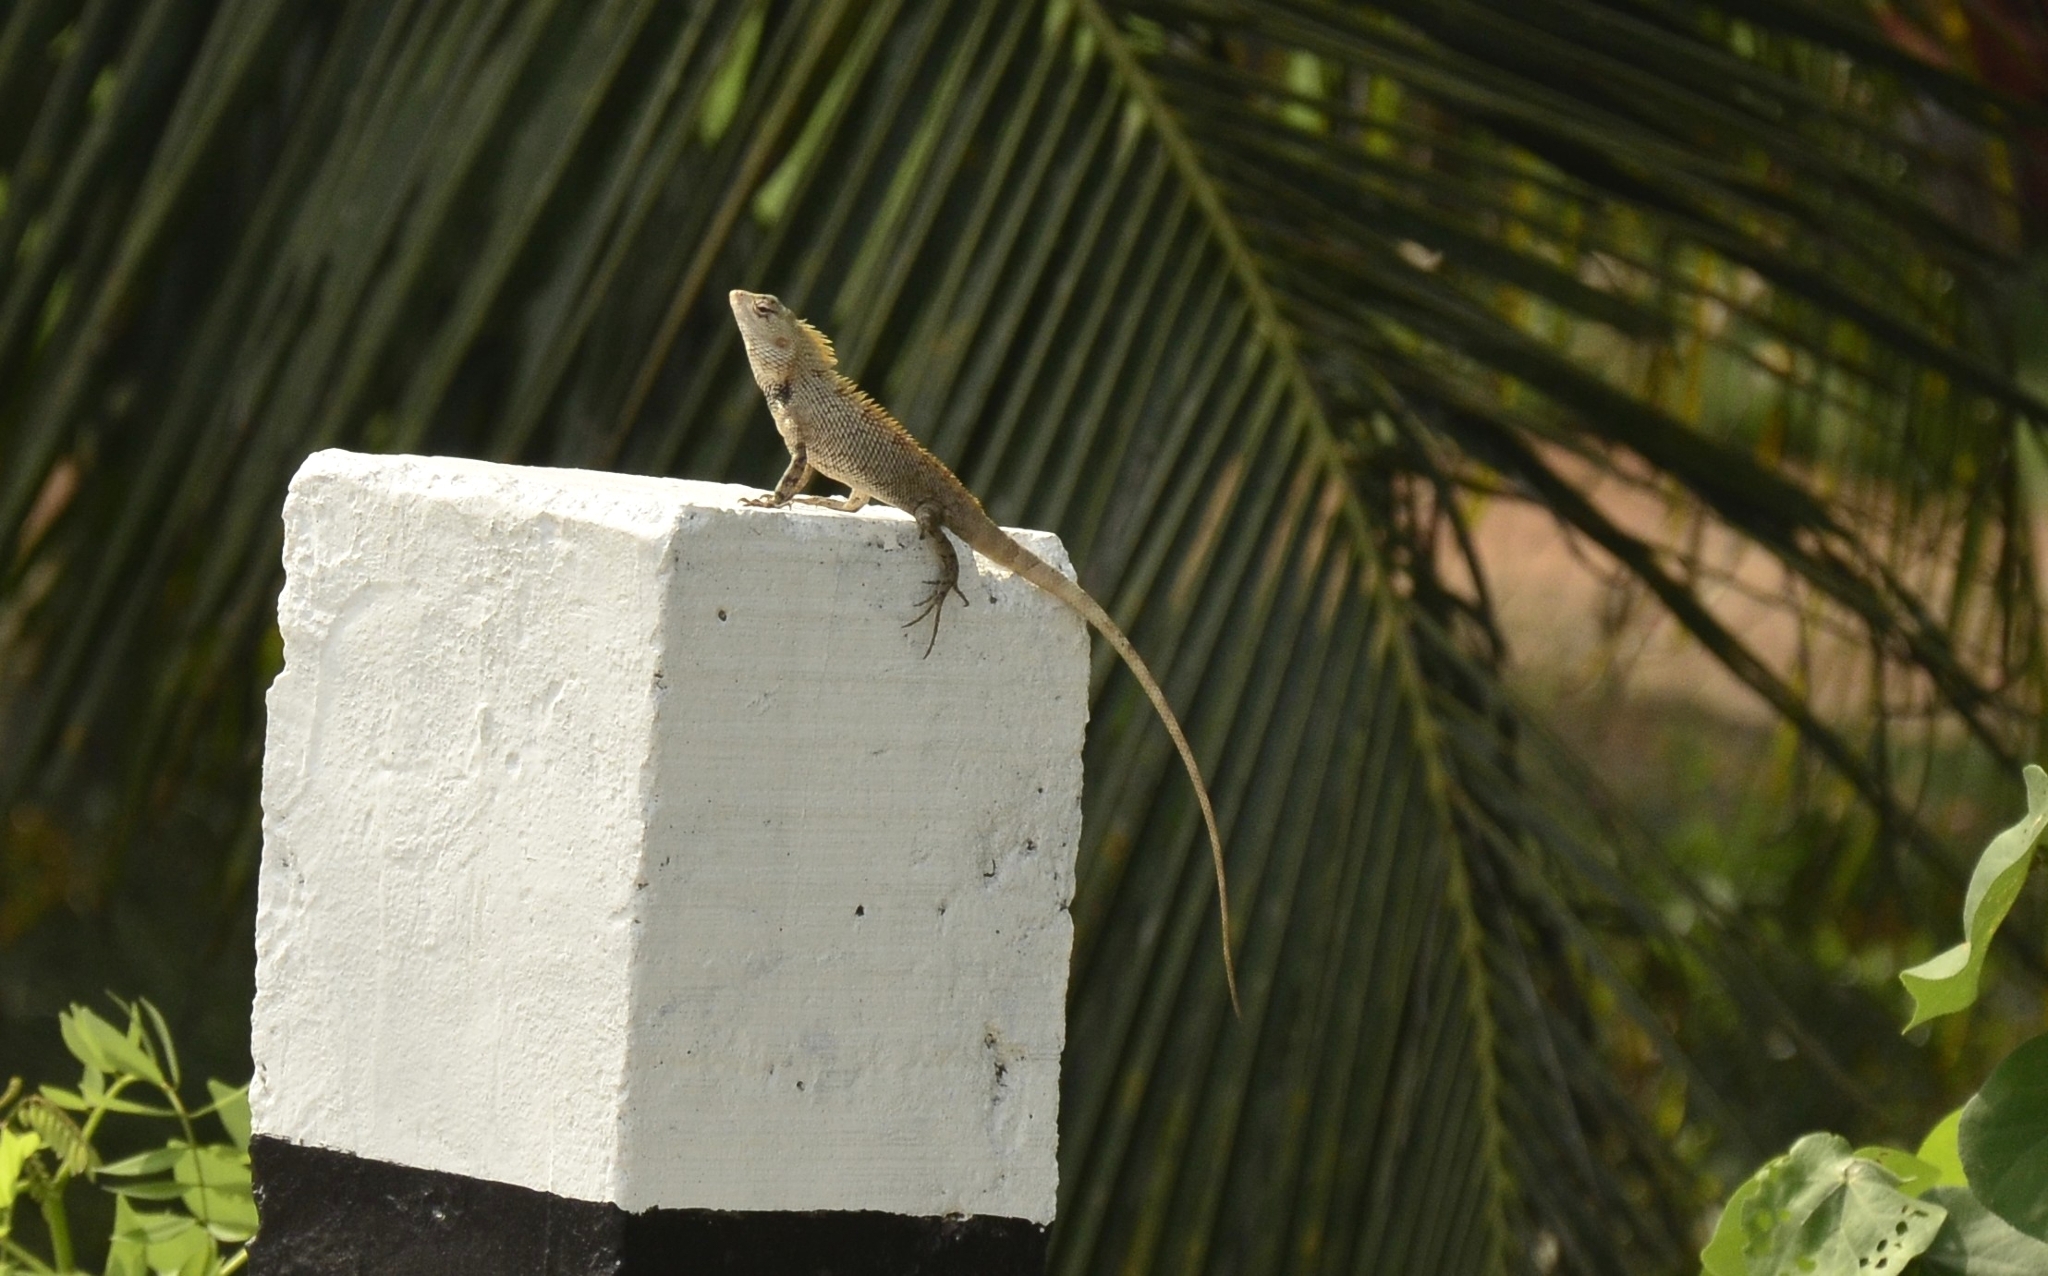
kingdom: Animalia
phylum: Chordata
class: Squamata
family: Agamidae
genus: Calotes
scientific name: Calotes versicolor
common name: Oriental garden lizard
